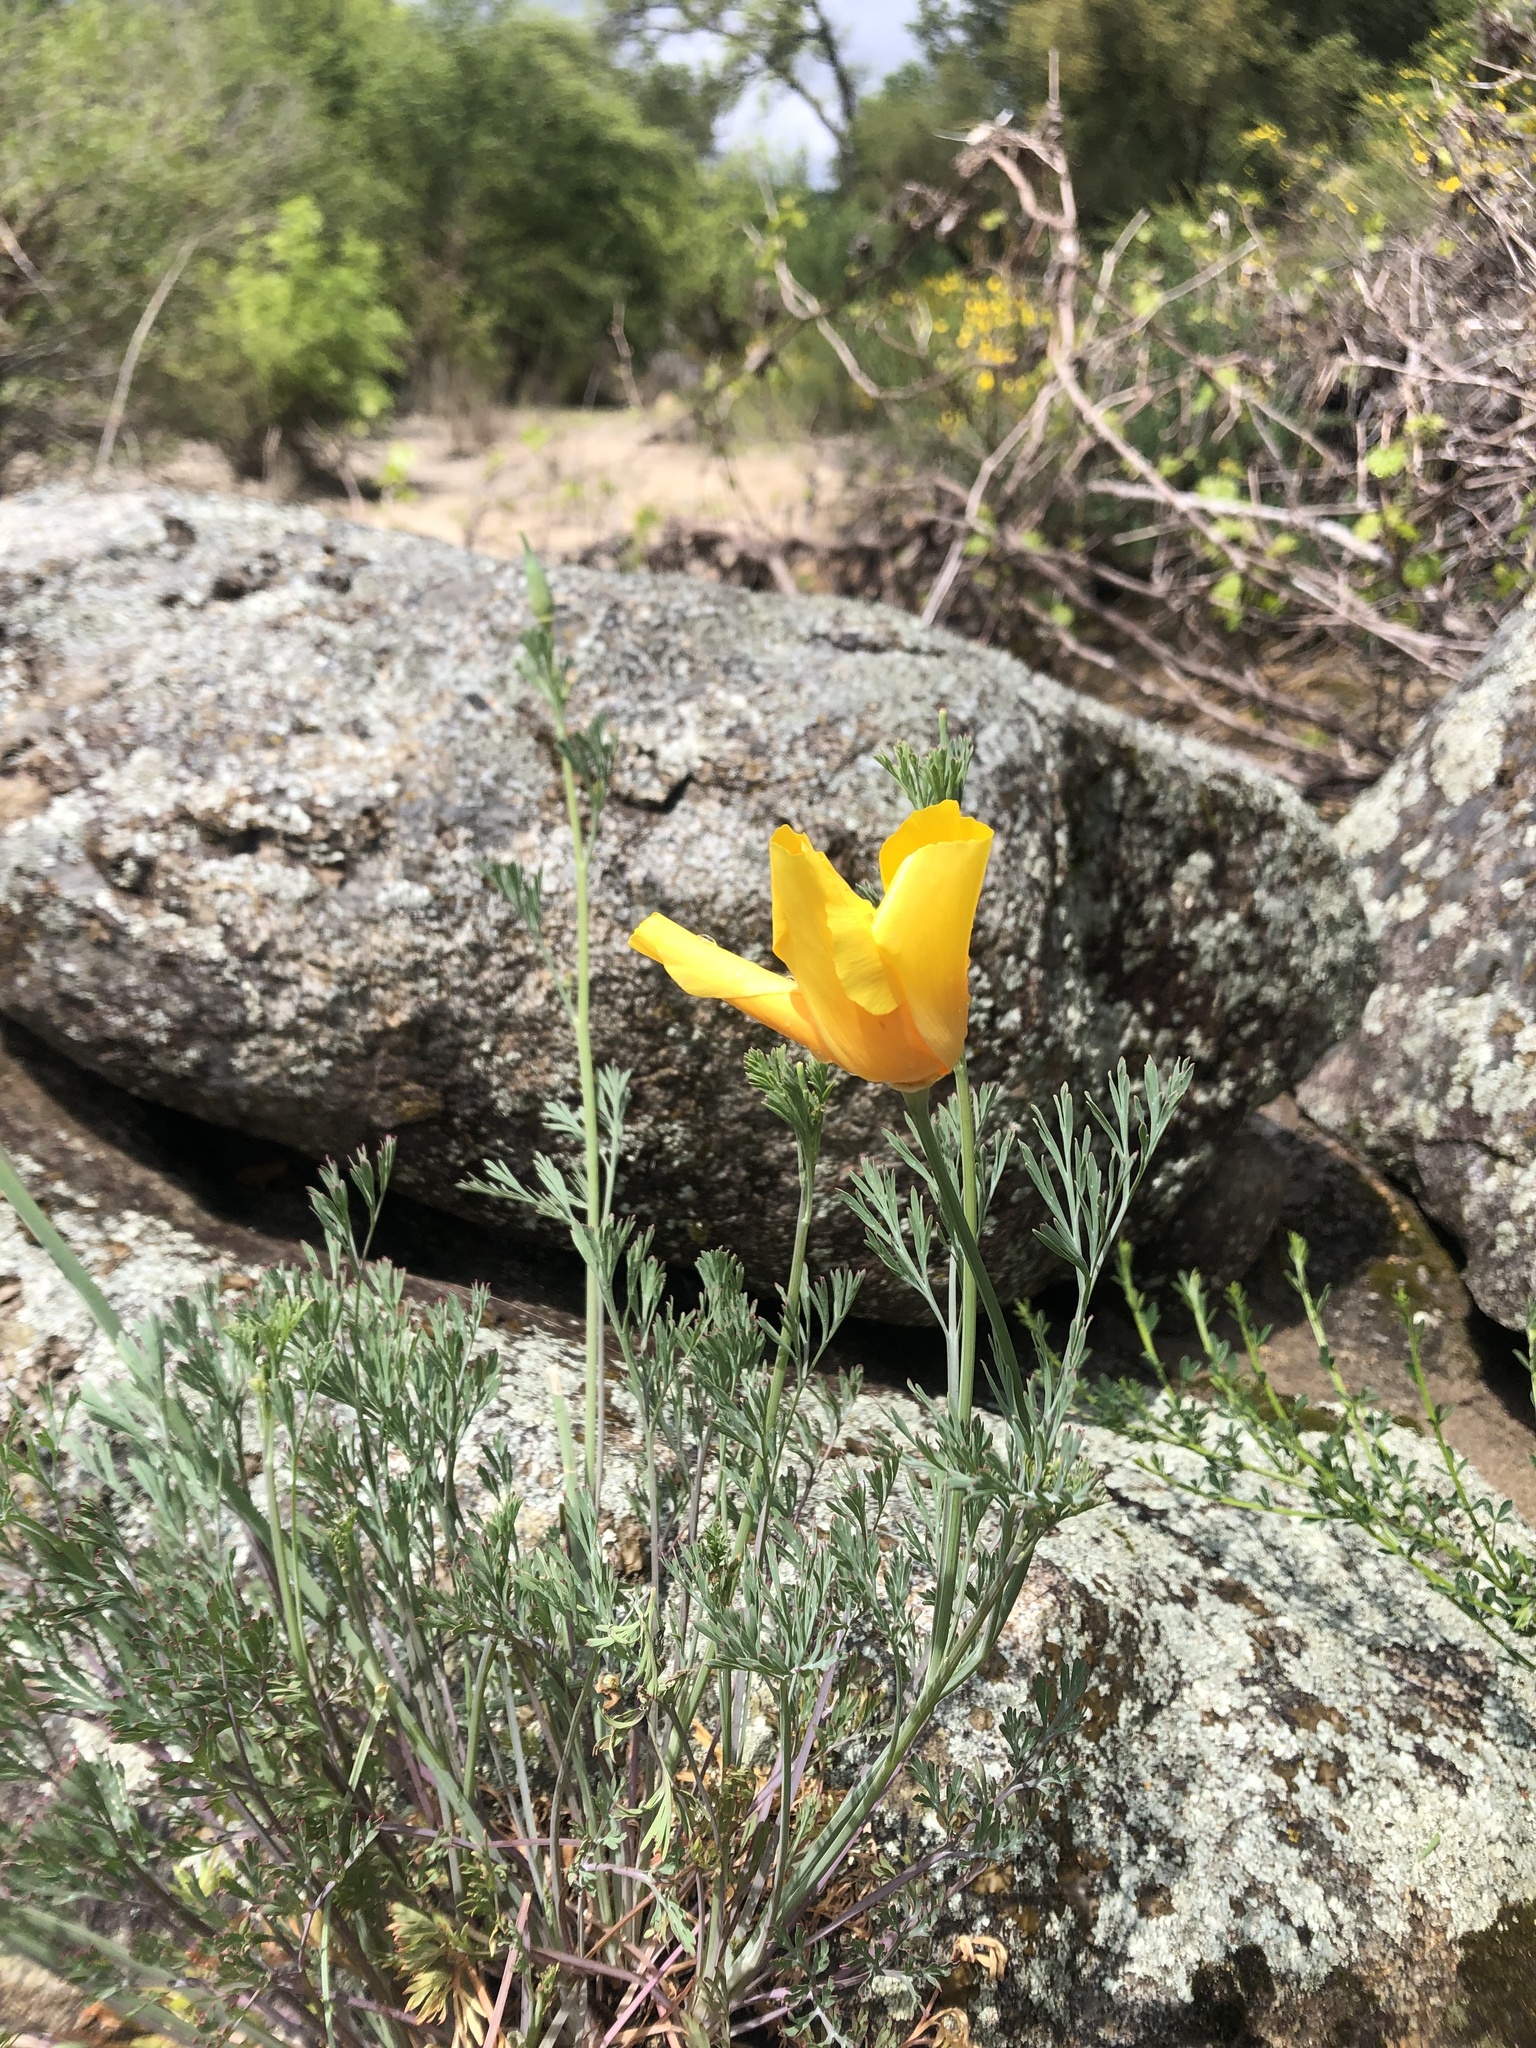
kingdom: Plantae
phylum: Tracheophyta
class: Magnoliopsida
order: Ranunculales
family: Papaveraceae
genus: Eschscholzia
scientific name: Eschscholzia californica
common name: California poppy
